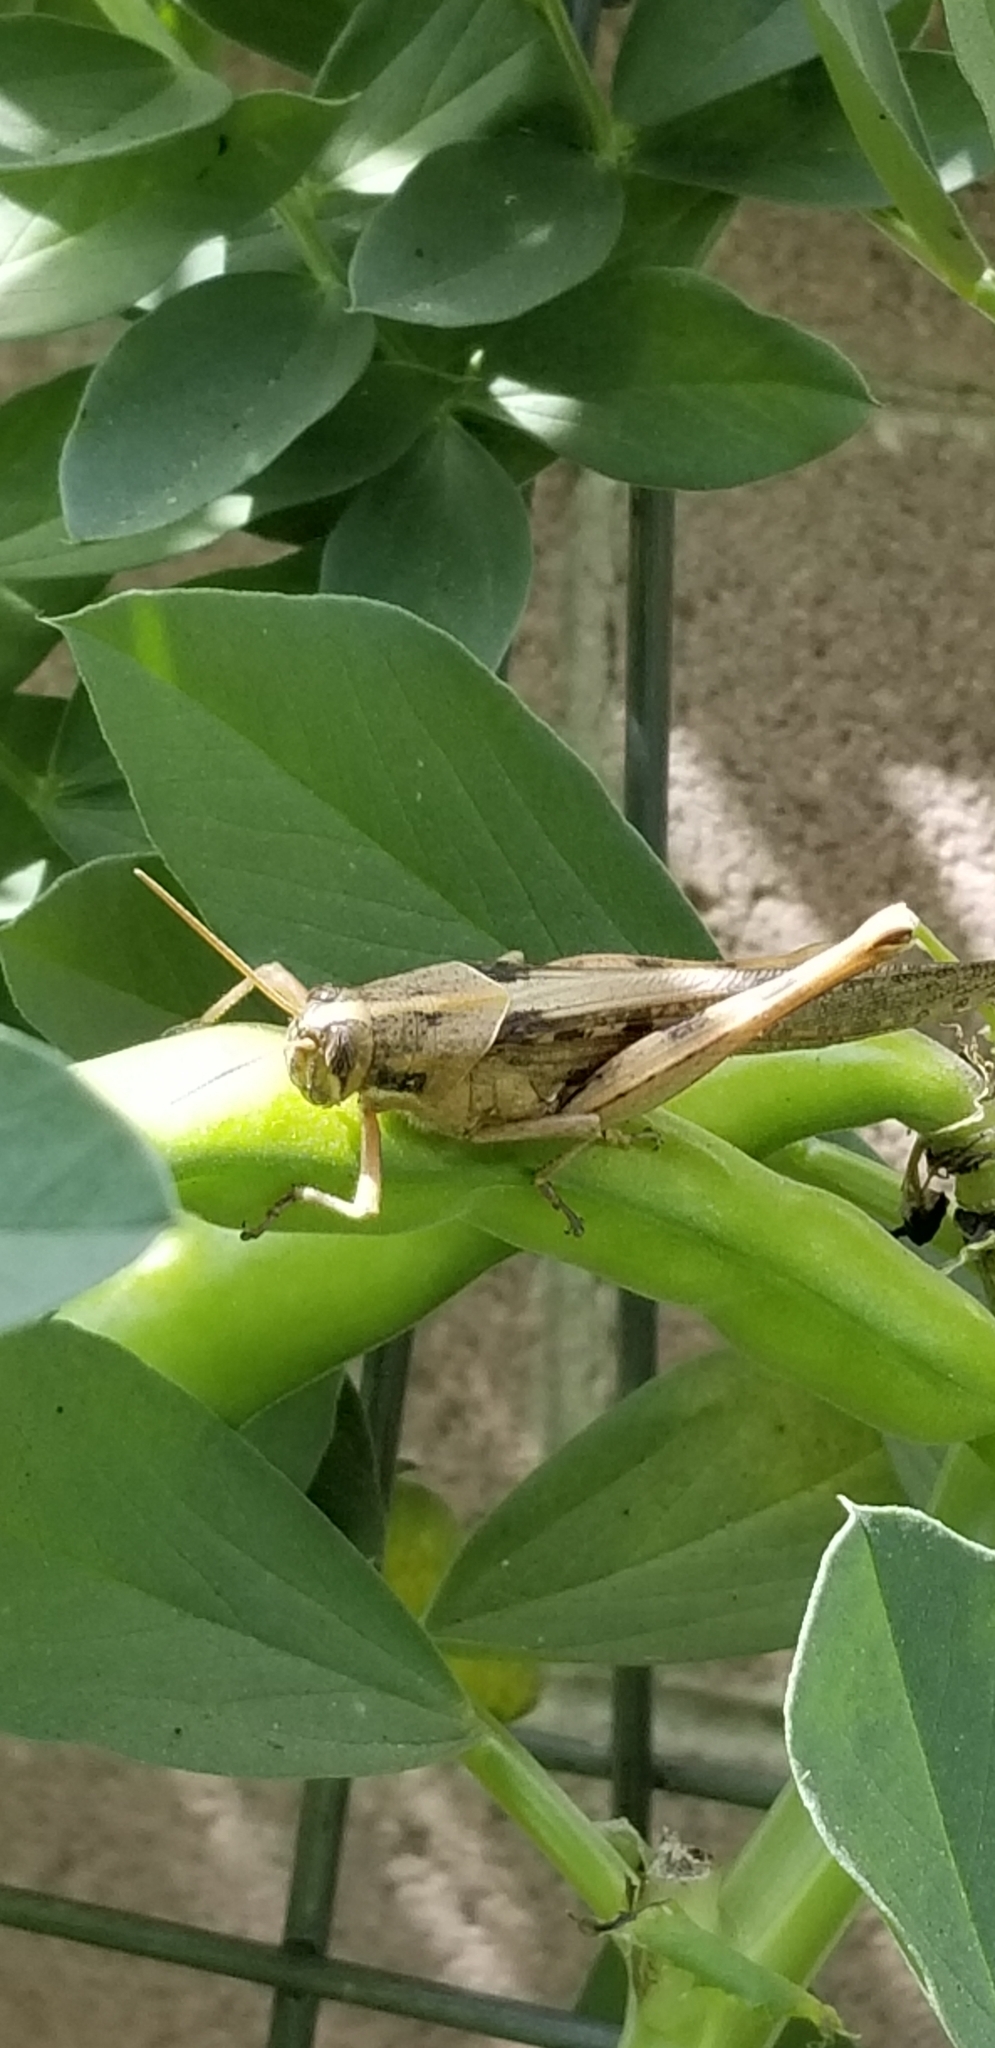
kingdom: Animalia
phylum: Arthropoda
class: Insecta
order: Orthoptera
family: Acrididae
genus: Schistocerca
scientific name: Schistocerca nitens
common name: Vagrant grasshopper
